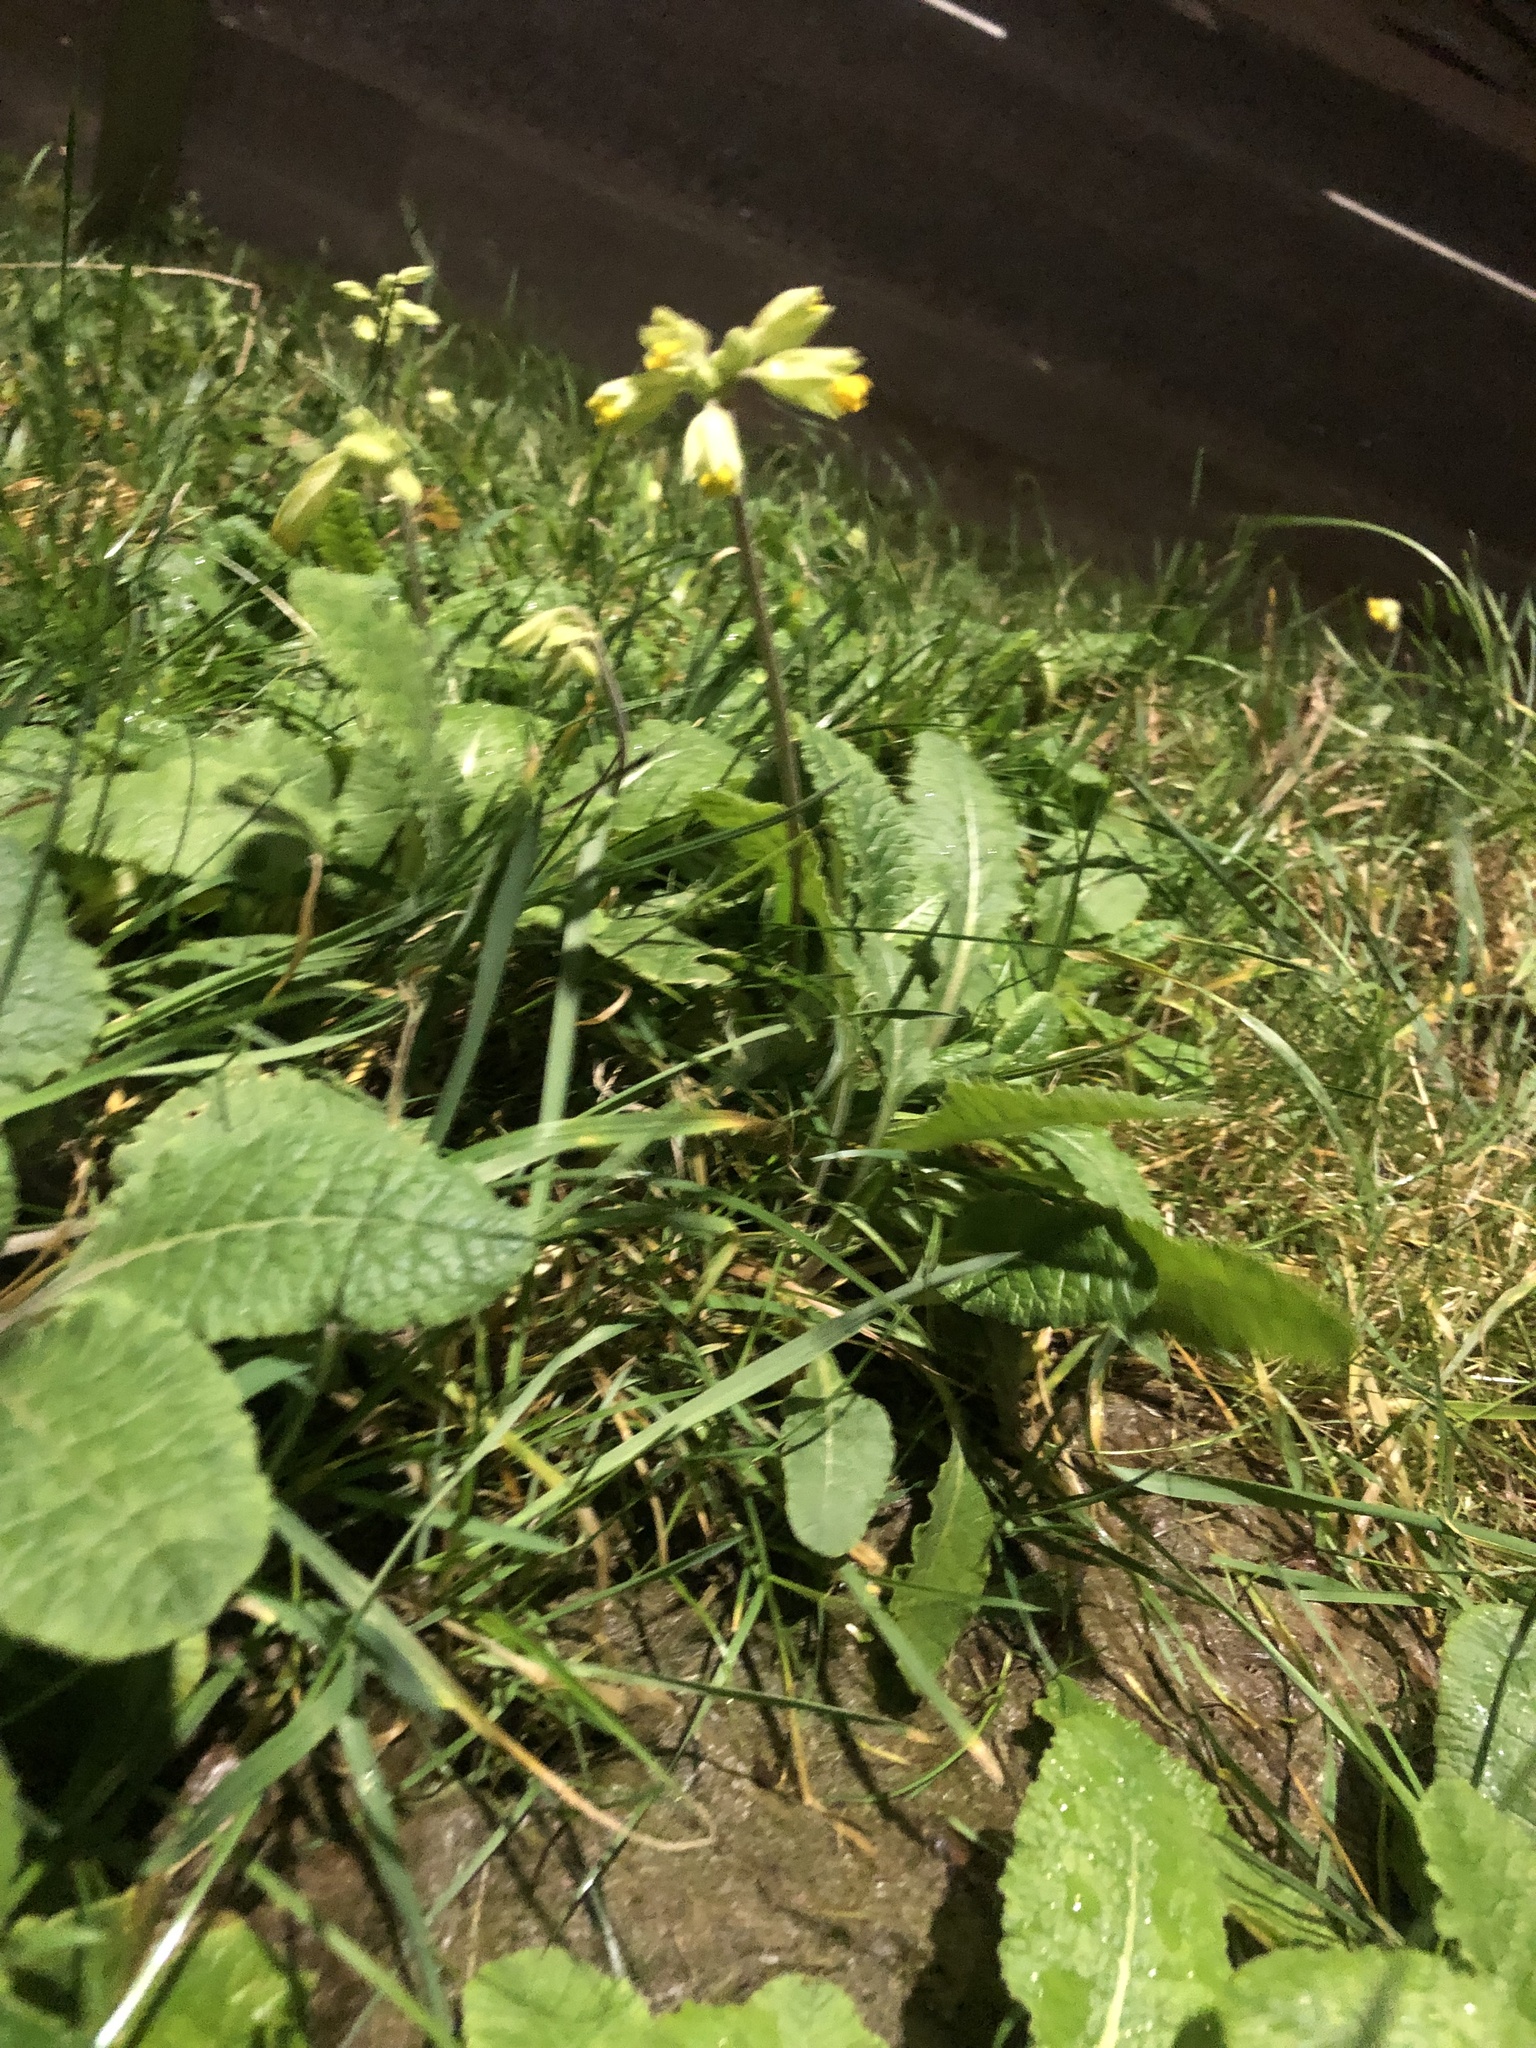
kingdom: Plantae
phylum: Tracheophyta
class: Magnoliopsida
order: Ericales
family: Primulaceae
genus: Primula
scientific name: Primula veris
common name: Cowslip
